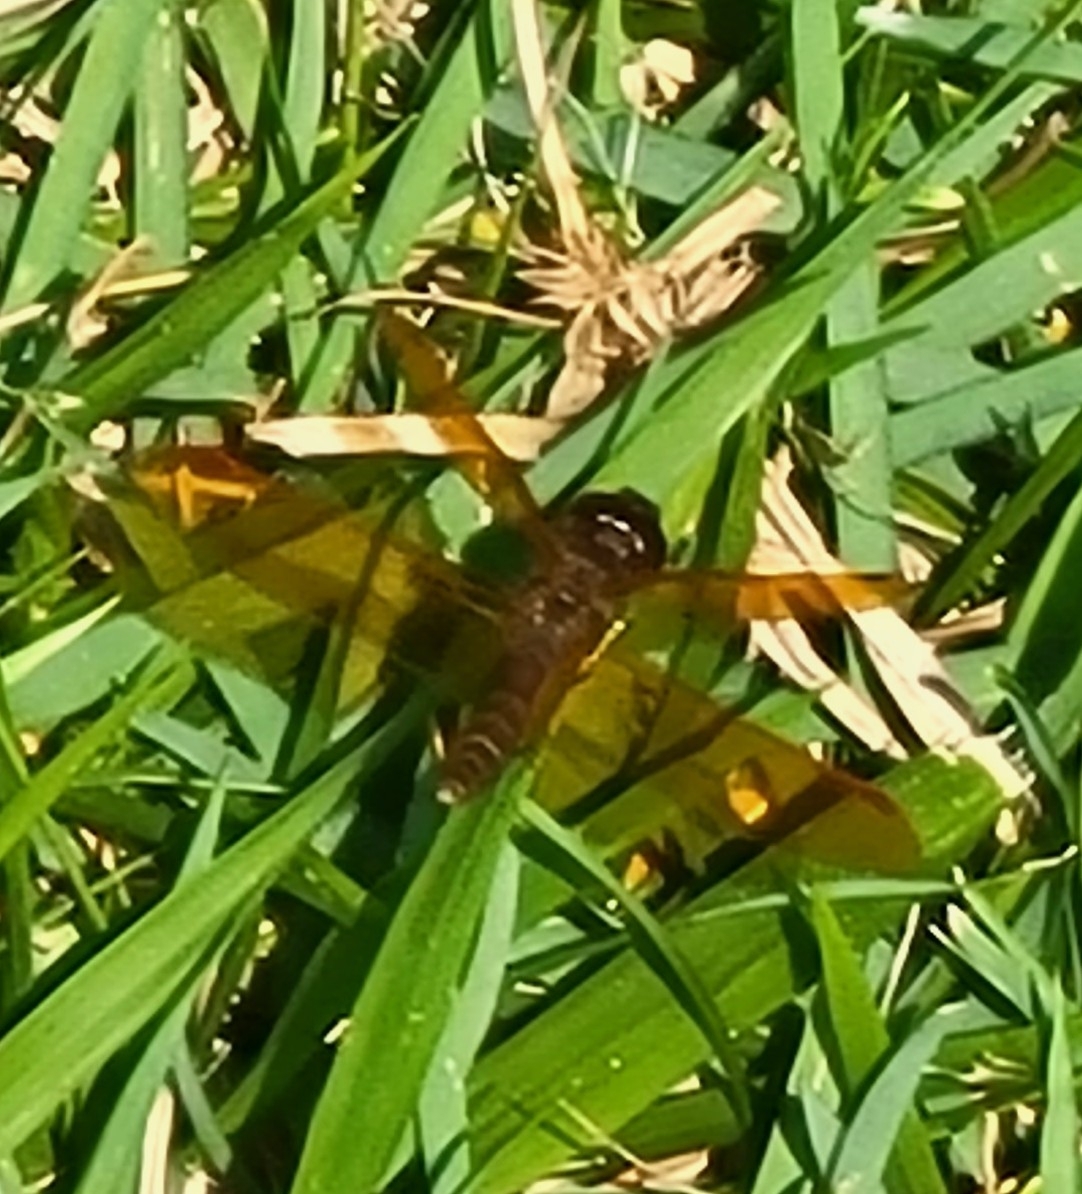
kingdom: Animalia
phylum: Arthropoda
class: Insecta
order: Odonata
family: Libellulidae
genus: Perithemis
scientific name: Perithemis tenera
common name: Eastern amberwing
